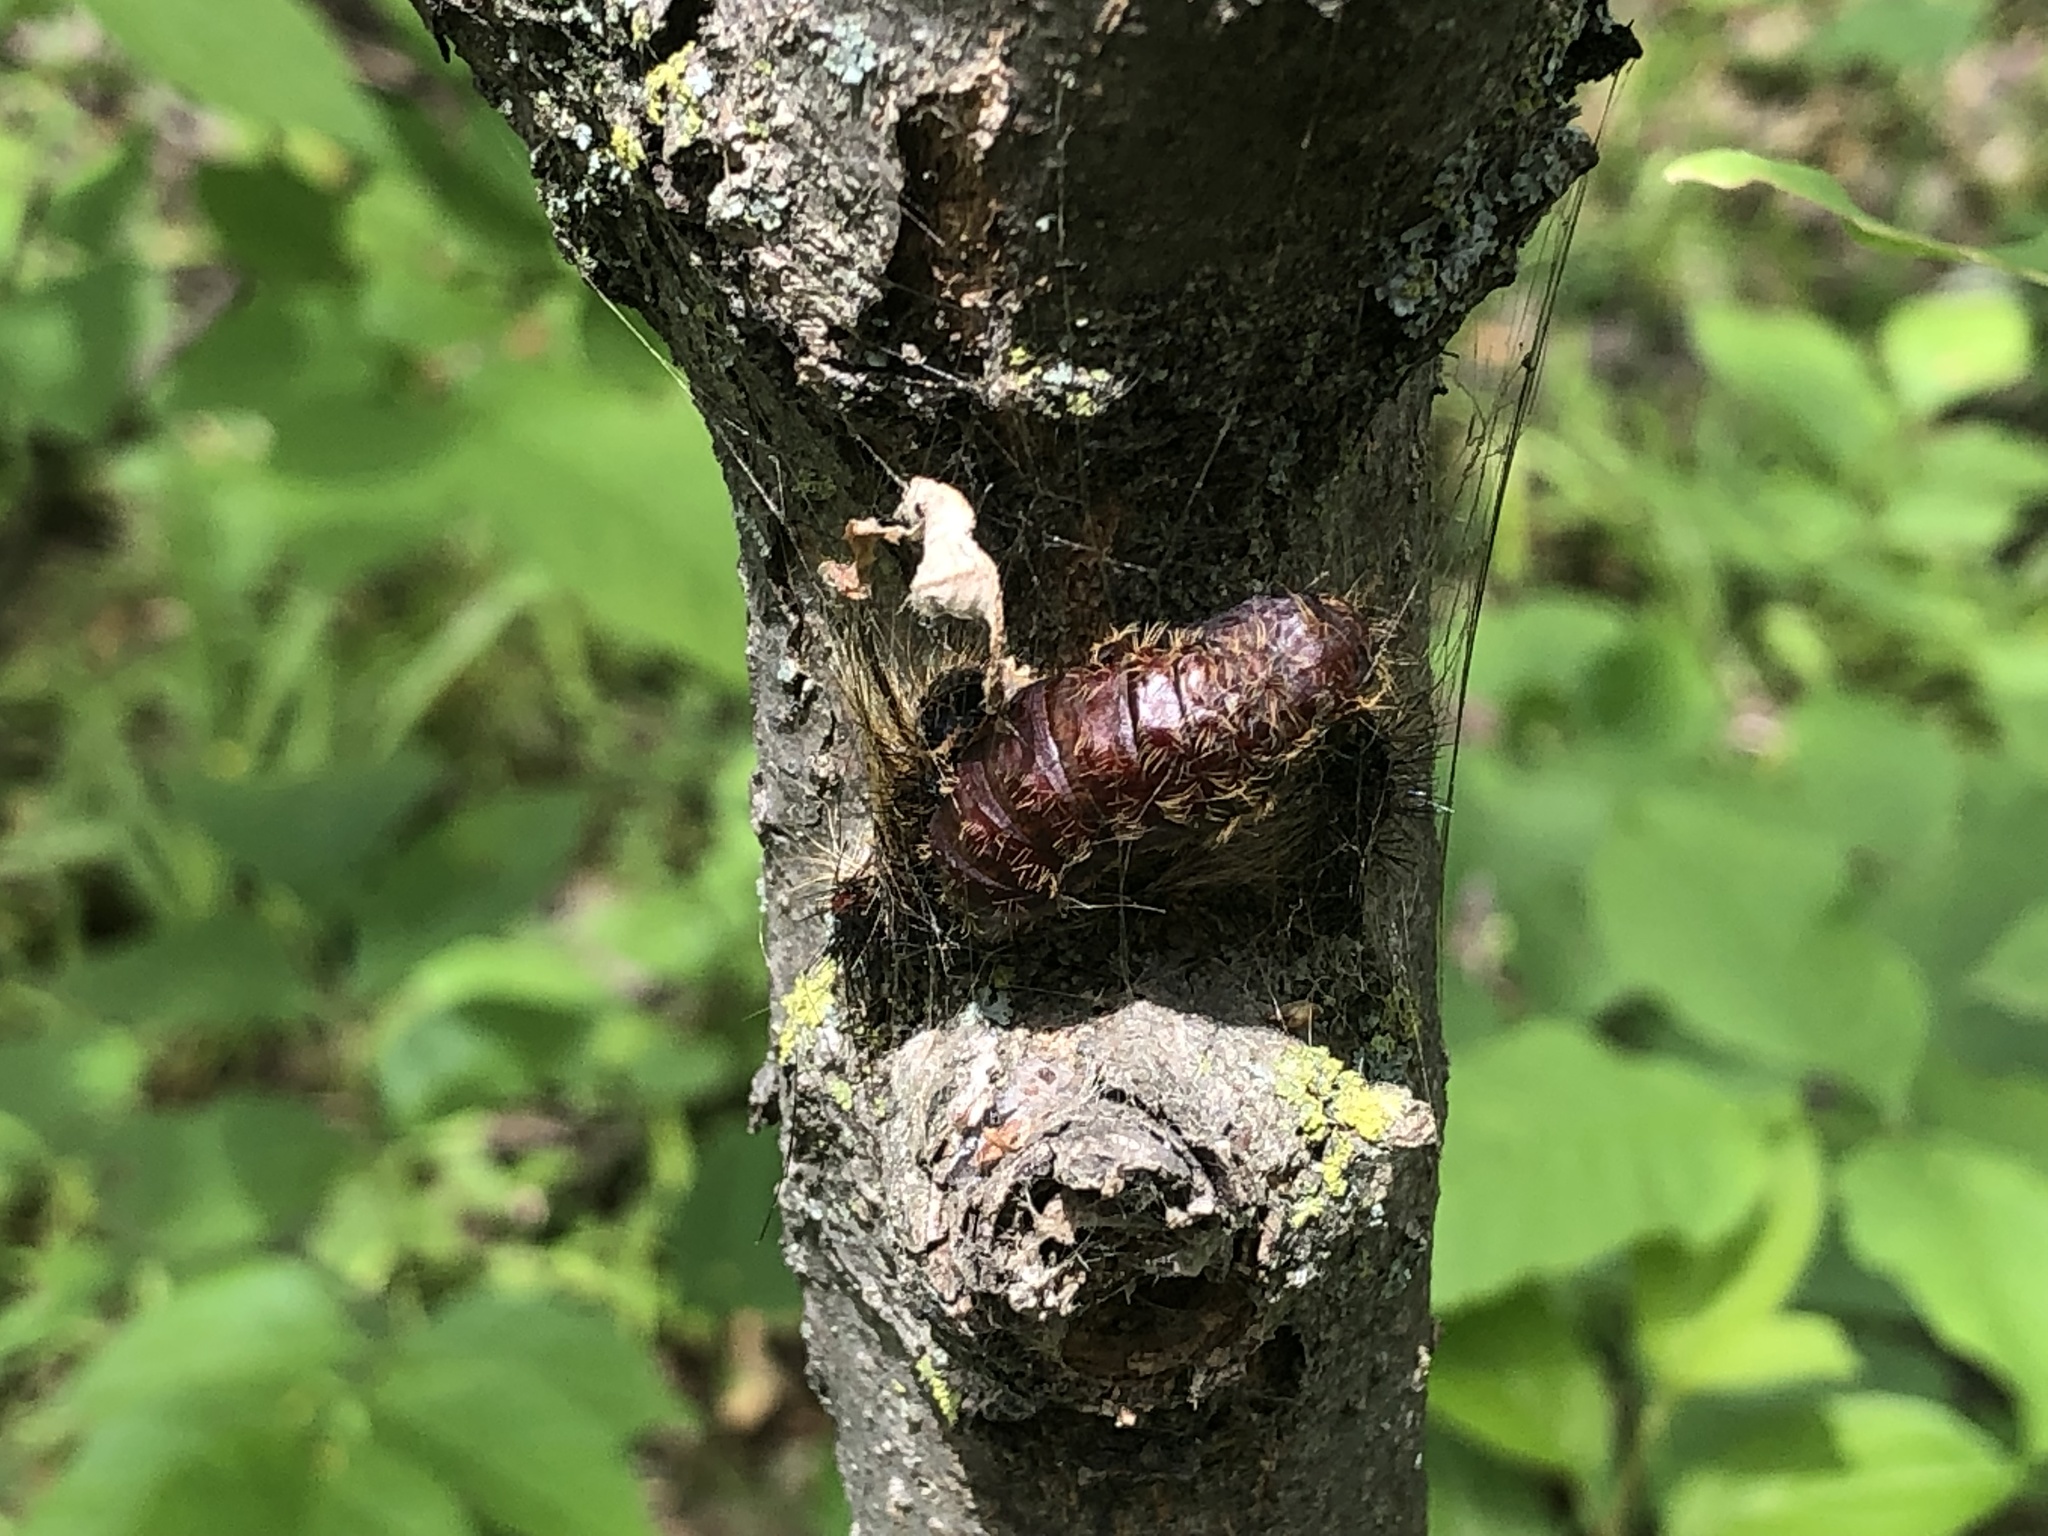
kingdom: Animalia
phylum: Arthropoda
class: Insecta
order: Lepidoptera
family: Erebidae
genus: Lymantria
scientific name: Lymantria dispar
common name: Gypsy moth
